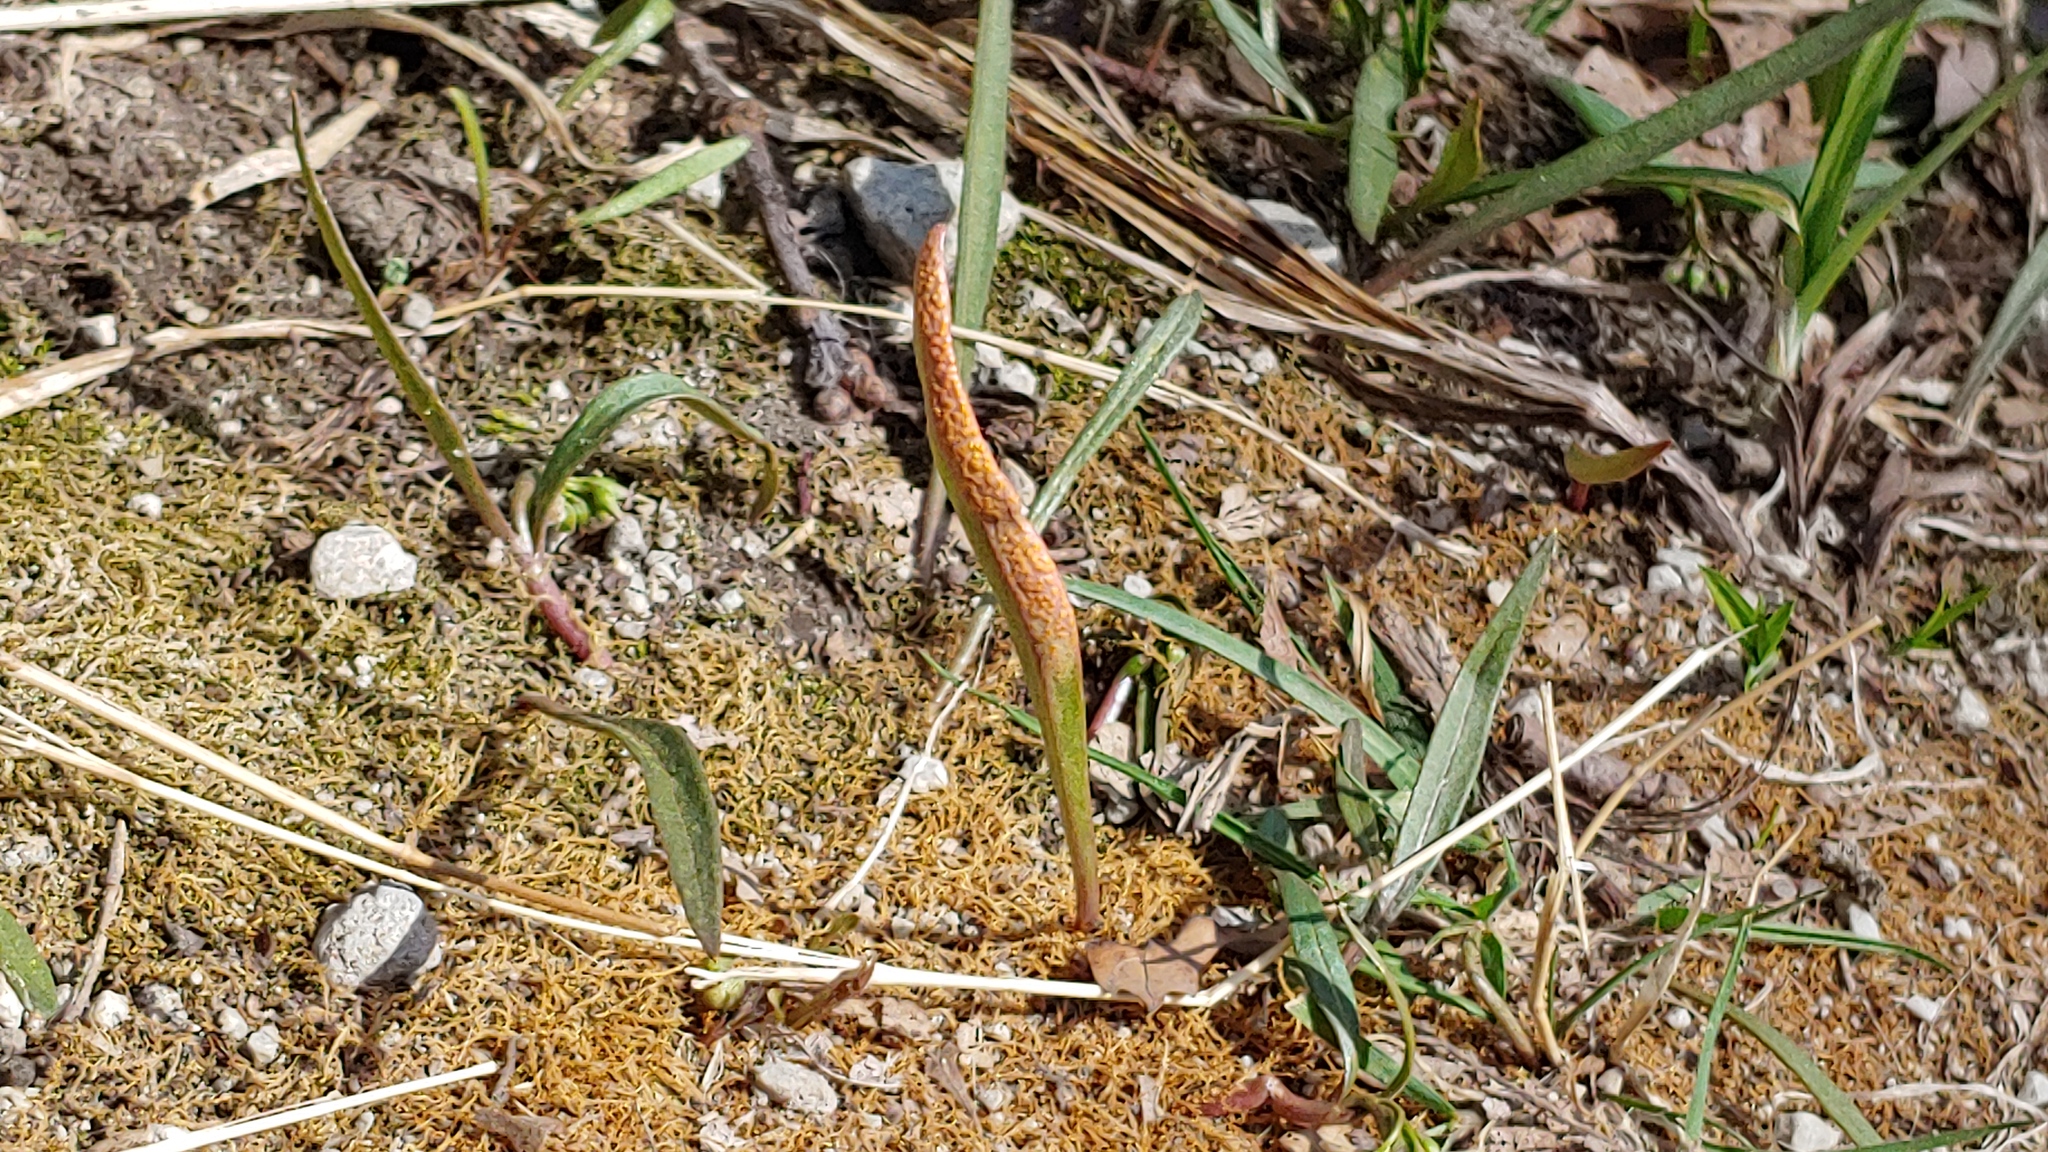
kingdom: Fungi
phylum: Basidiomycota
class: Pucciniomycetes
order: Pucciniales
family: Pucciniaceae
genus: Puccinia
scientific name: Puccinia mariae-wilsoniae
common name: Spring beauty rust
